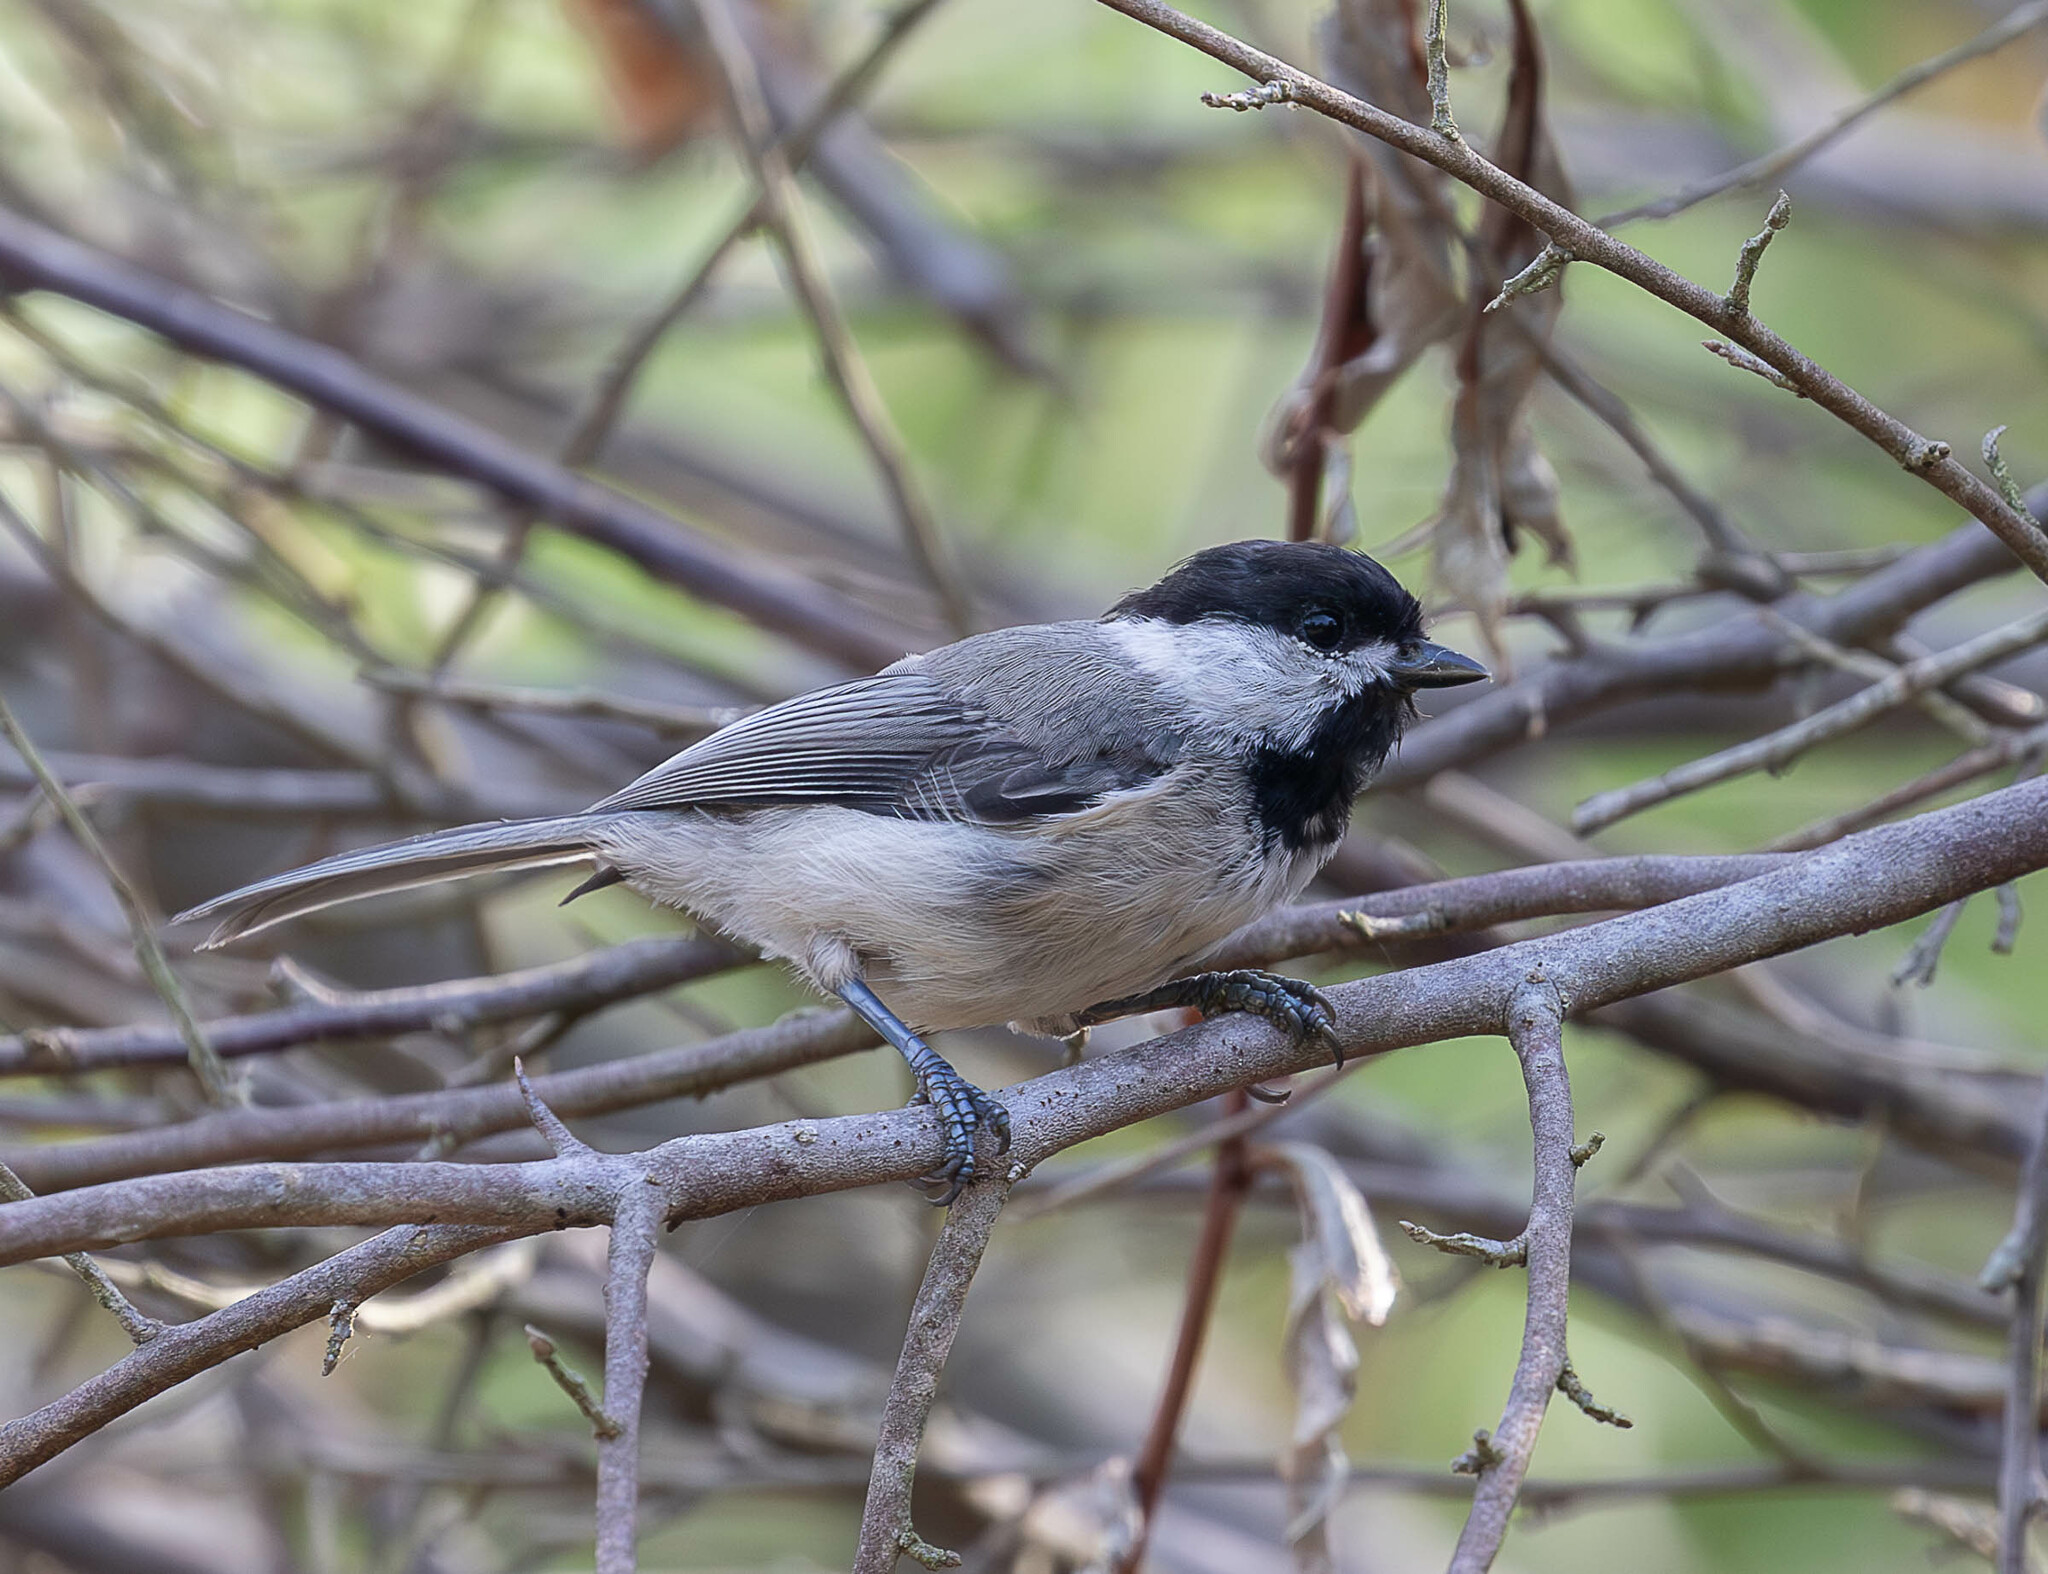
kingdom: Animalia
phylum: Chordata
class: Aves
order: Passeriformes
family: Paridae
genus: Poecile
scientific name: Poecile carolinensis
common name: Carolina chickadee
